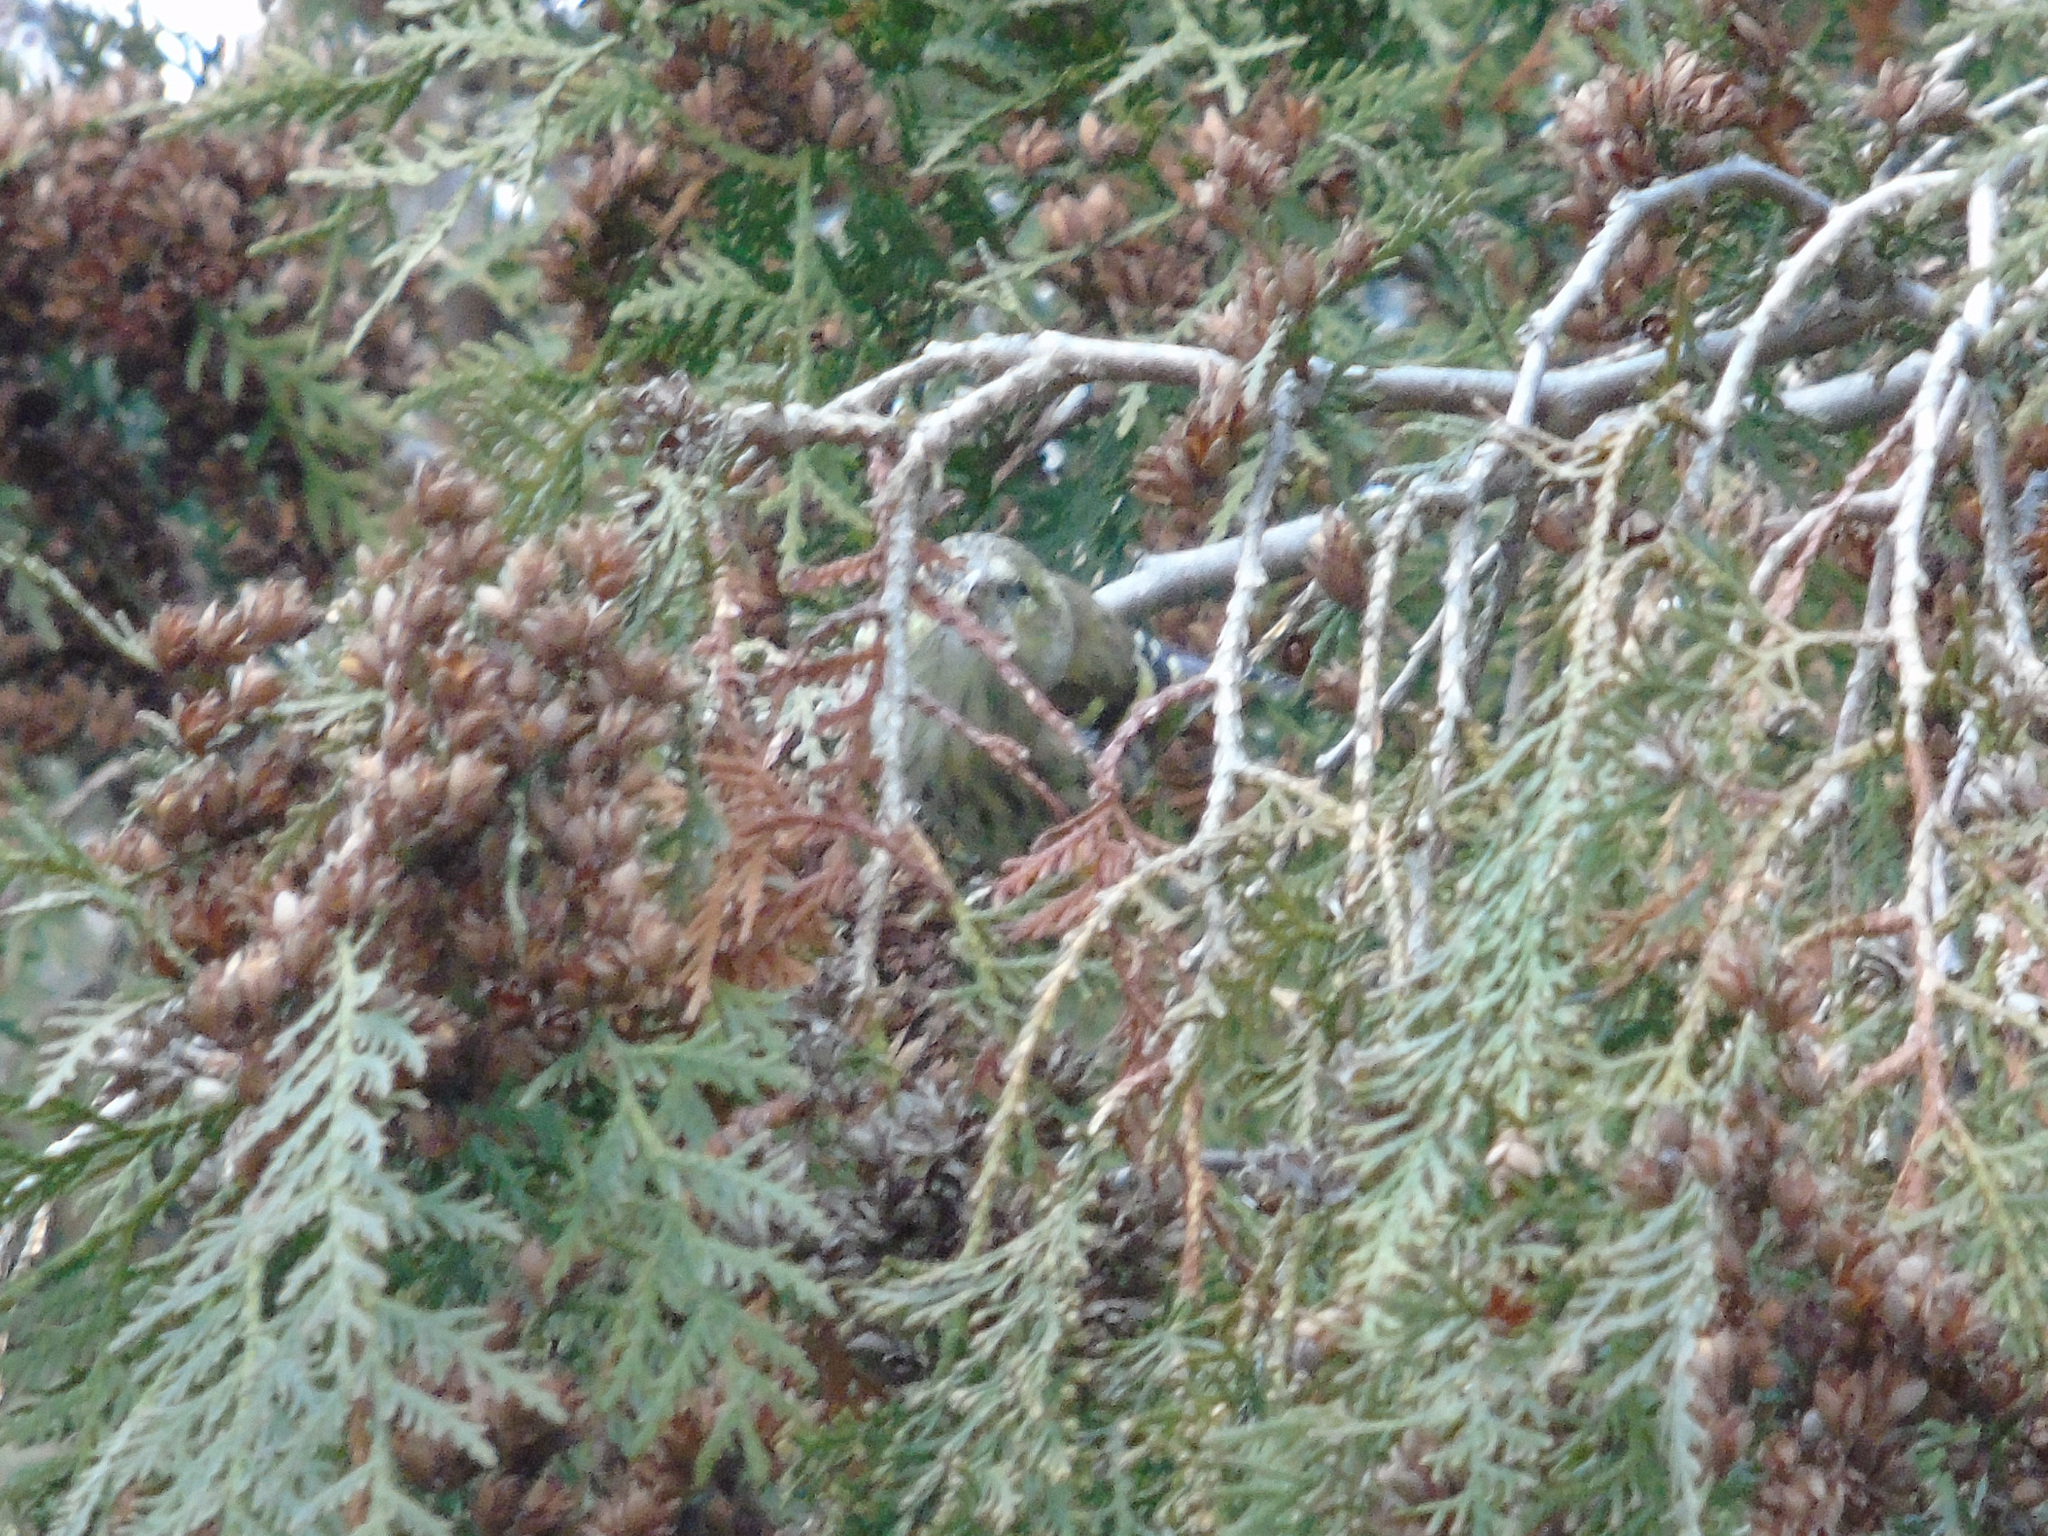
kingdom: Animalia
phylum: Chordata
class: Aves
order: Passeriformes
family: Fringillidae
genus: Spinus
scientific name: Spinus spinus
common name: Eurasian siskin
